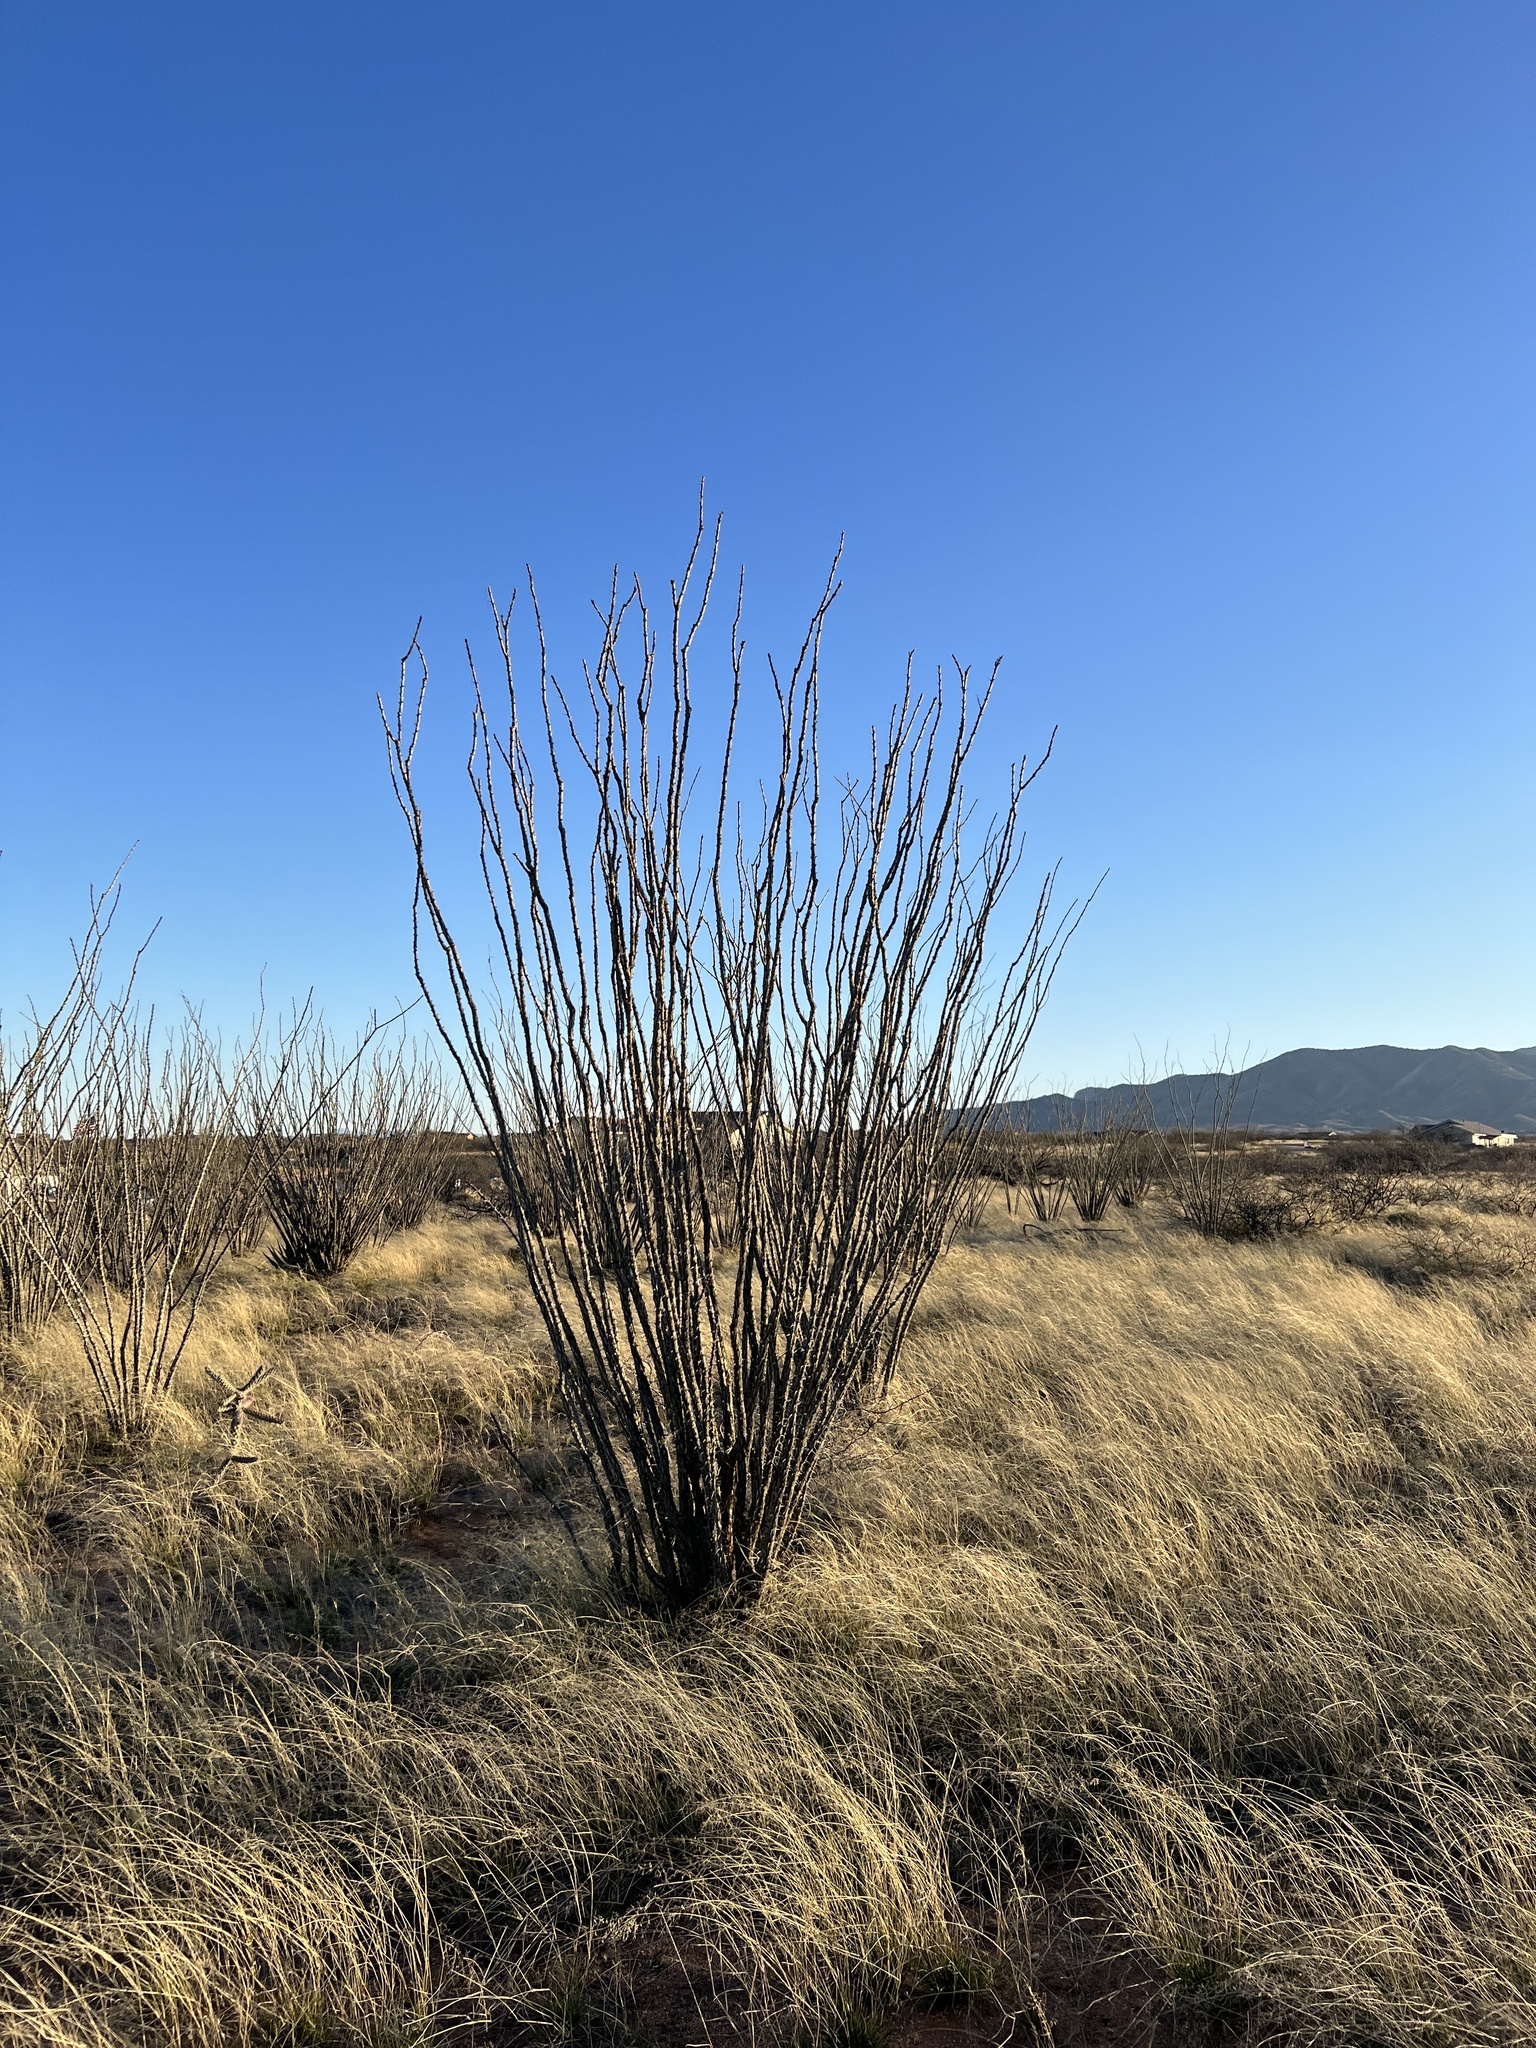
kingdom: Plantae
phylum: Tracheophyta
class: Magnoliopsida
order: Ericales
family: Fouquieriaceae
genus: Fouquieria
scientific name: Fouquieria splendens
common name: Vine-cactus
